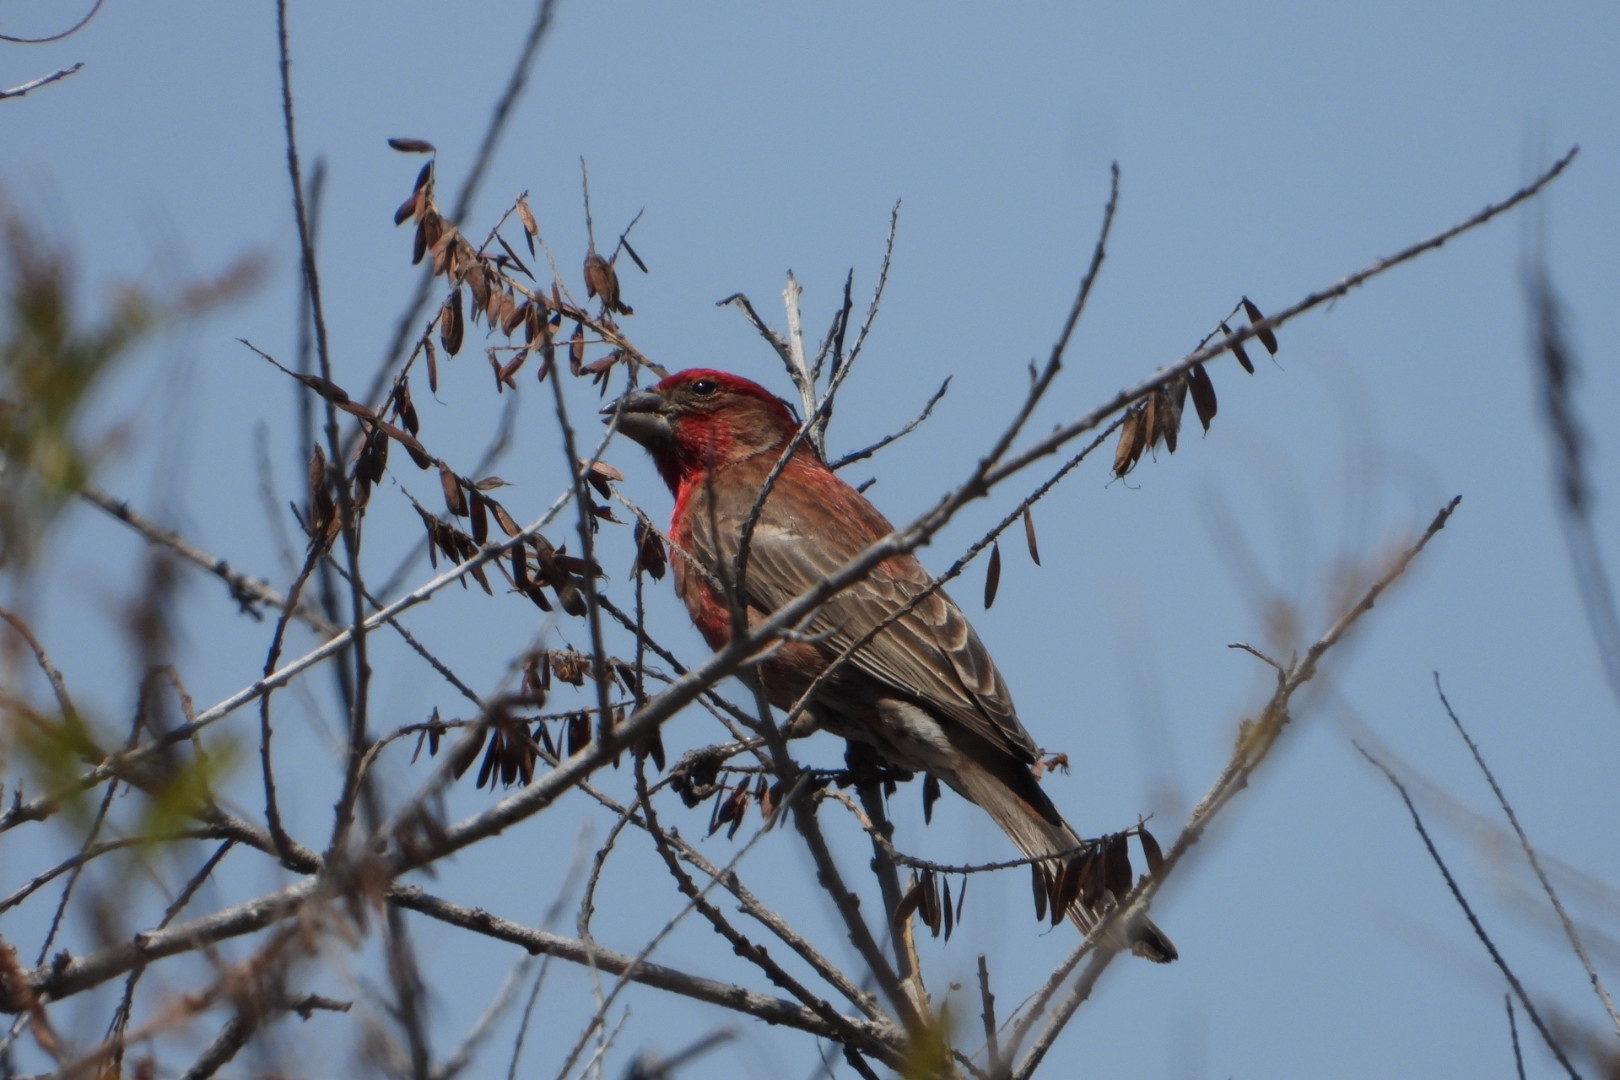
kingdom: Animalia
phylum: Chordata
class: Aves
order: Passeriformes
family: Fringillidae
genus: Haemorhous
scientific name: Haemorhous mexicanus
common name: House finch
